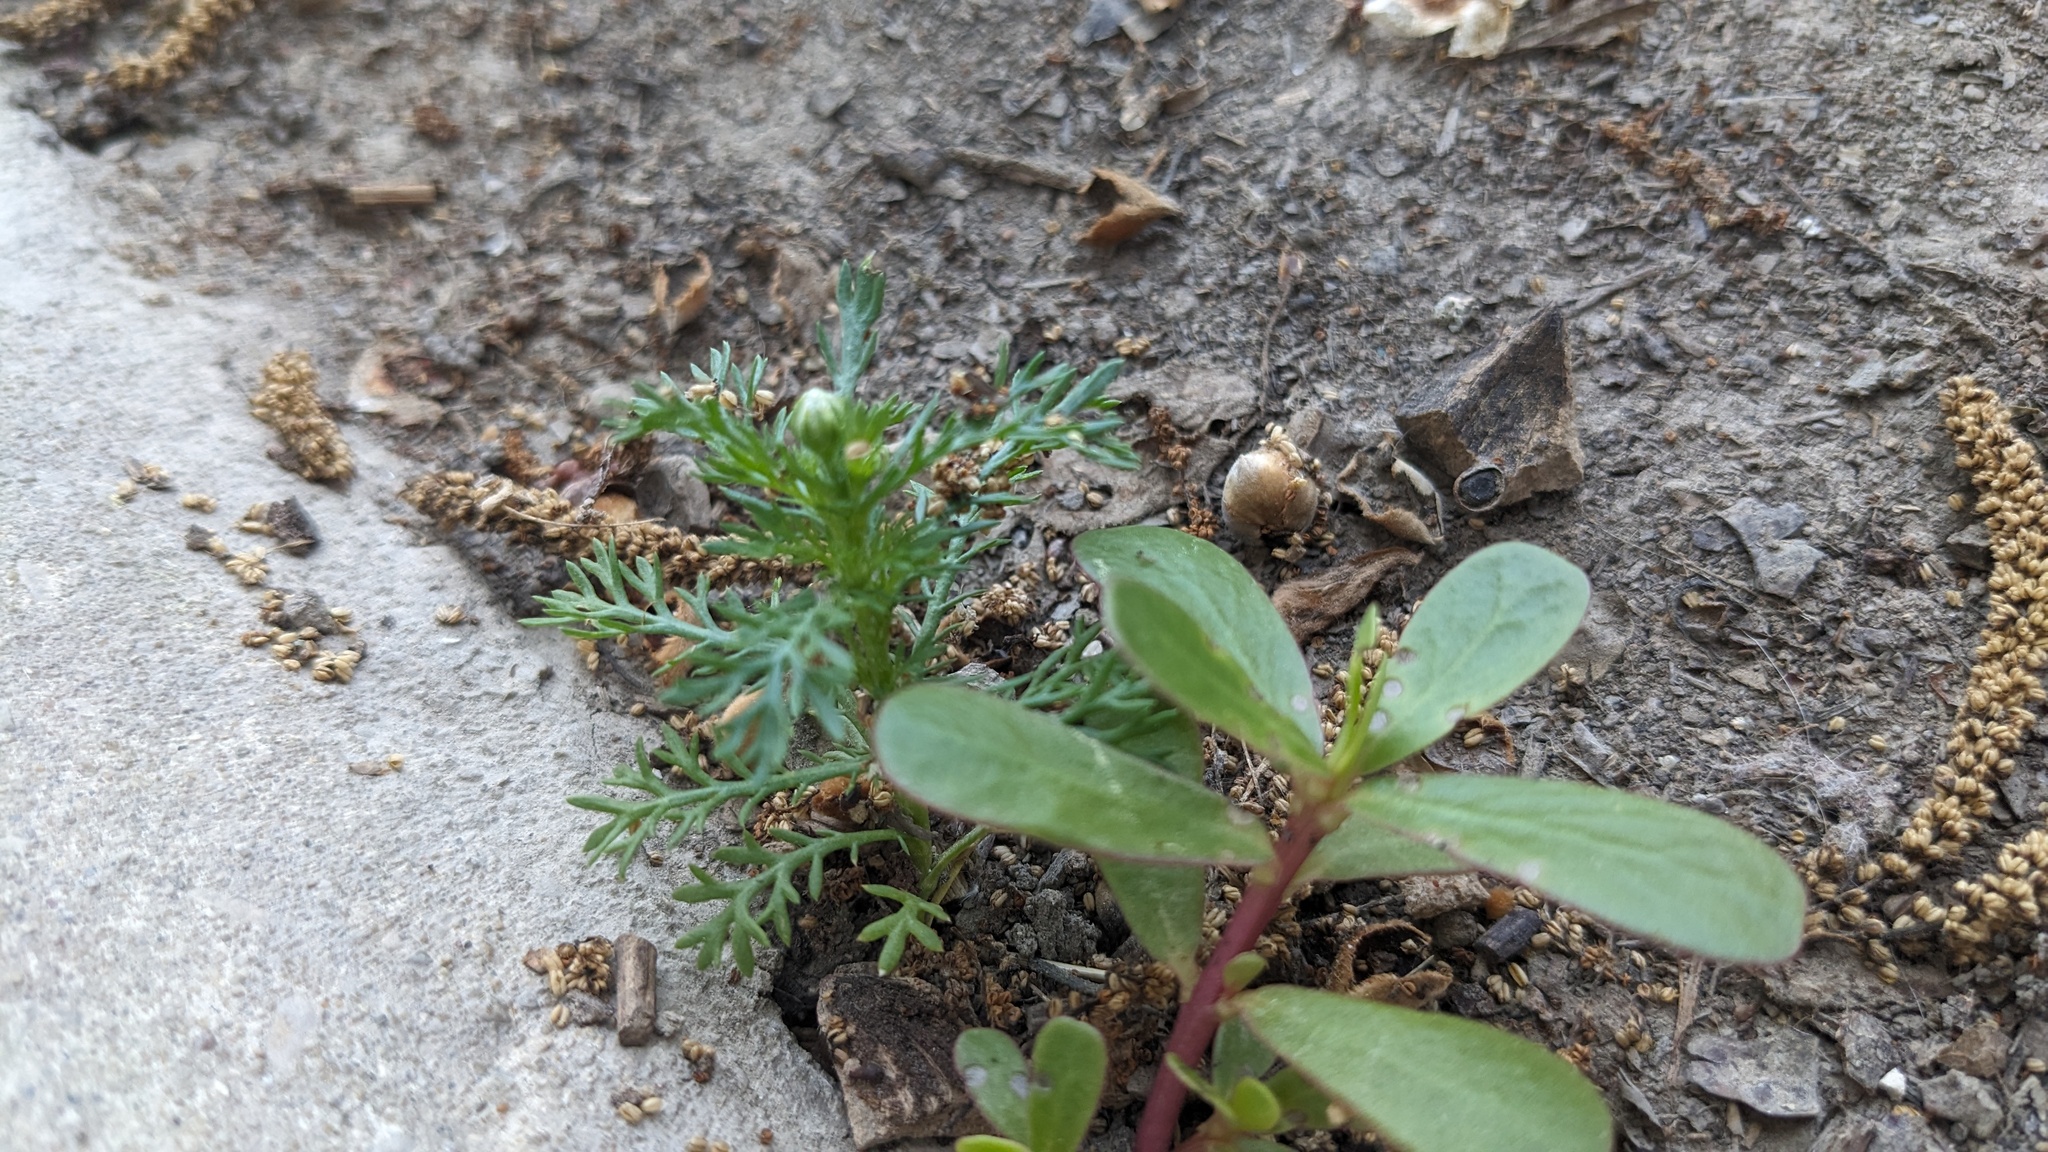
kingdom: Plantae
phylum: Tracheophyta
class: Magnoliopsida
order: Asterales
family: Asteraceae
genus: Matricaria
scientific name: Matricaria discoidea
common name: Disc mayweed
